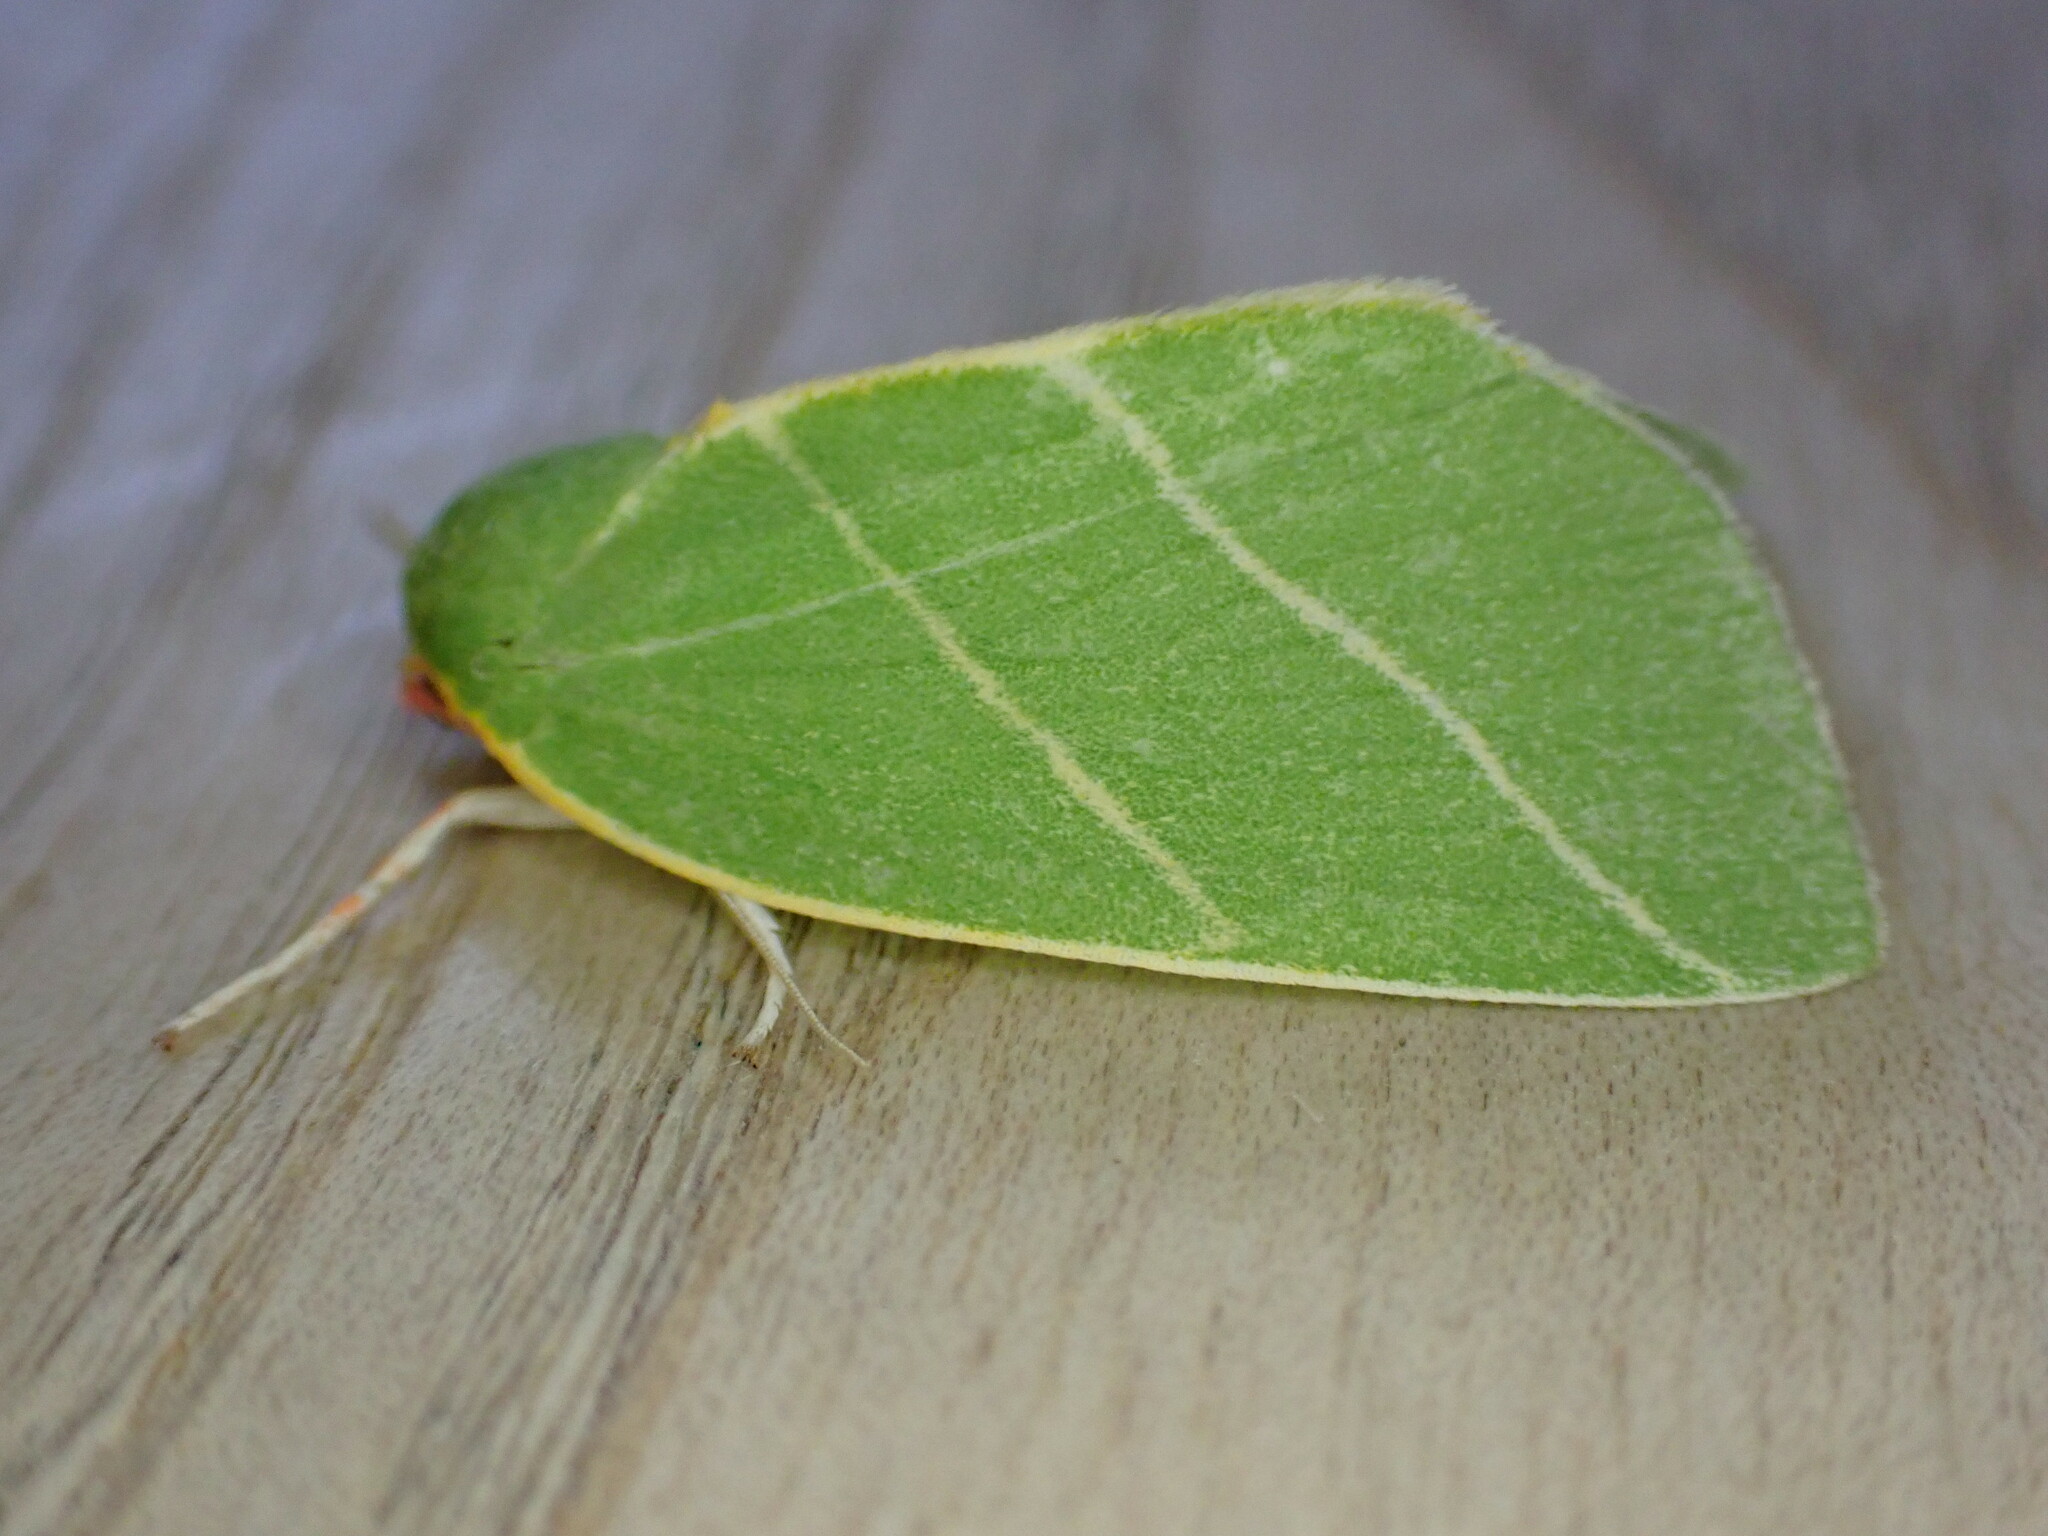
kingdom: Animalia
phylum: Arthropoda
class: Insecta
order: Lepidoptera
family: Nolidae
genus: Bena
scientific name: Bena bicolorana
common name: Scarce silver-lines
